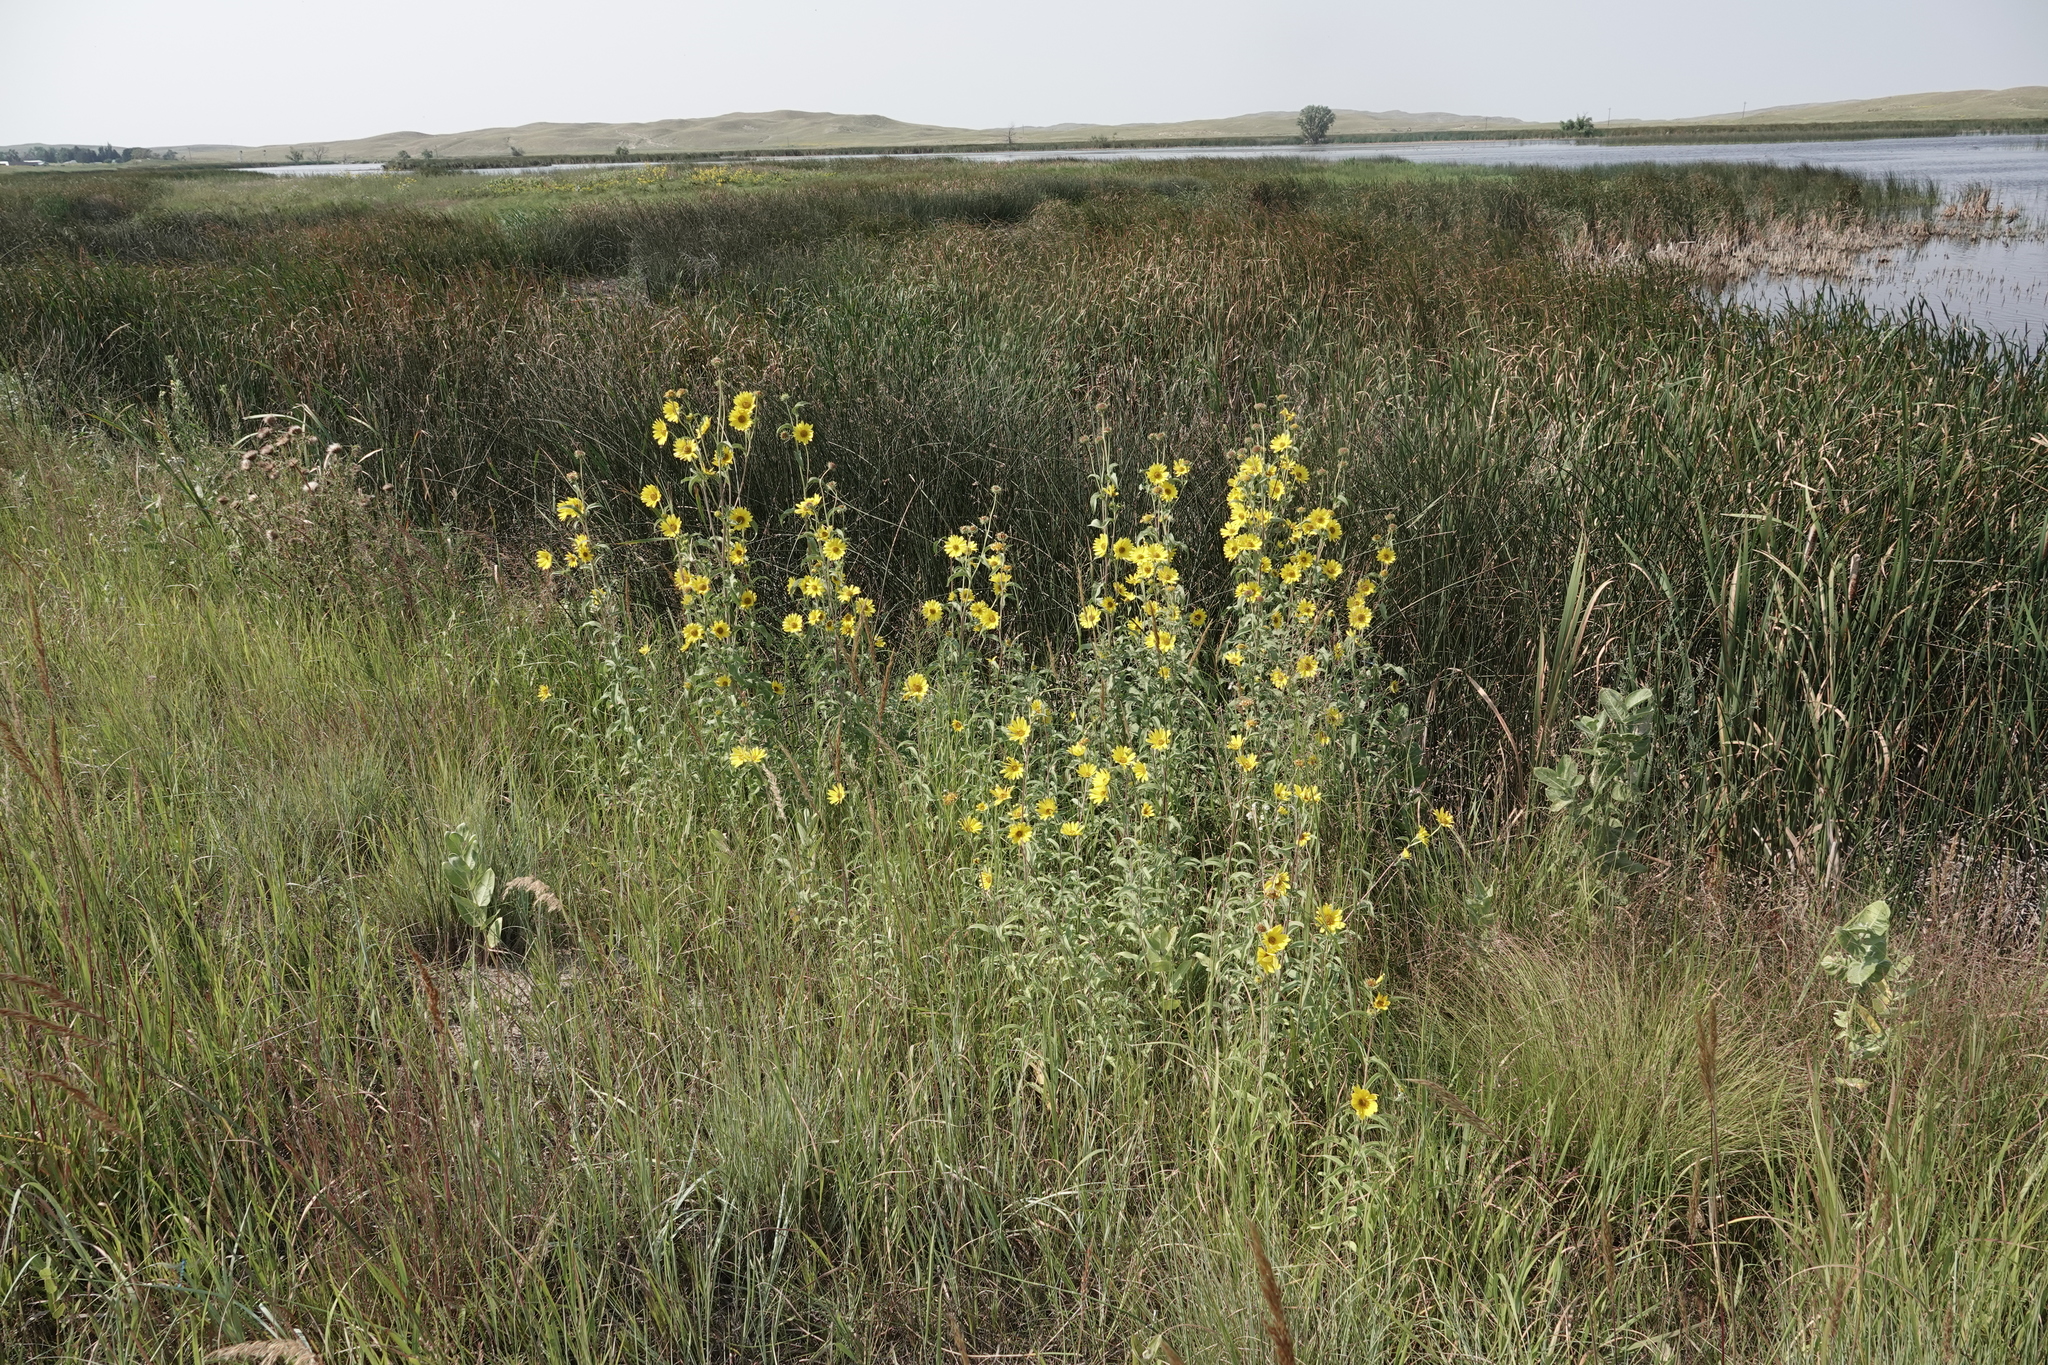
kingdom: Plantae
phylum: Tracheophyta
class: Magnoliopsida
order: Asterales
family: Asteraceae
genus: Helianthus
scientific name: Helianthus maximiliani
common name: Maximilian's sunflower
